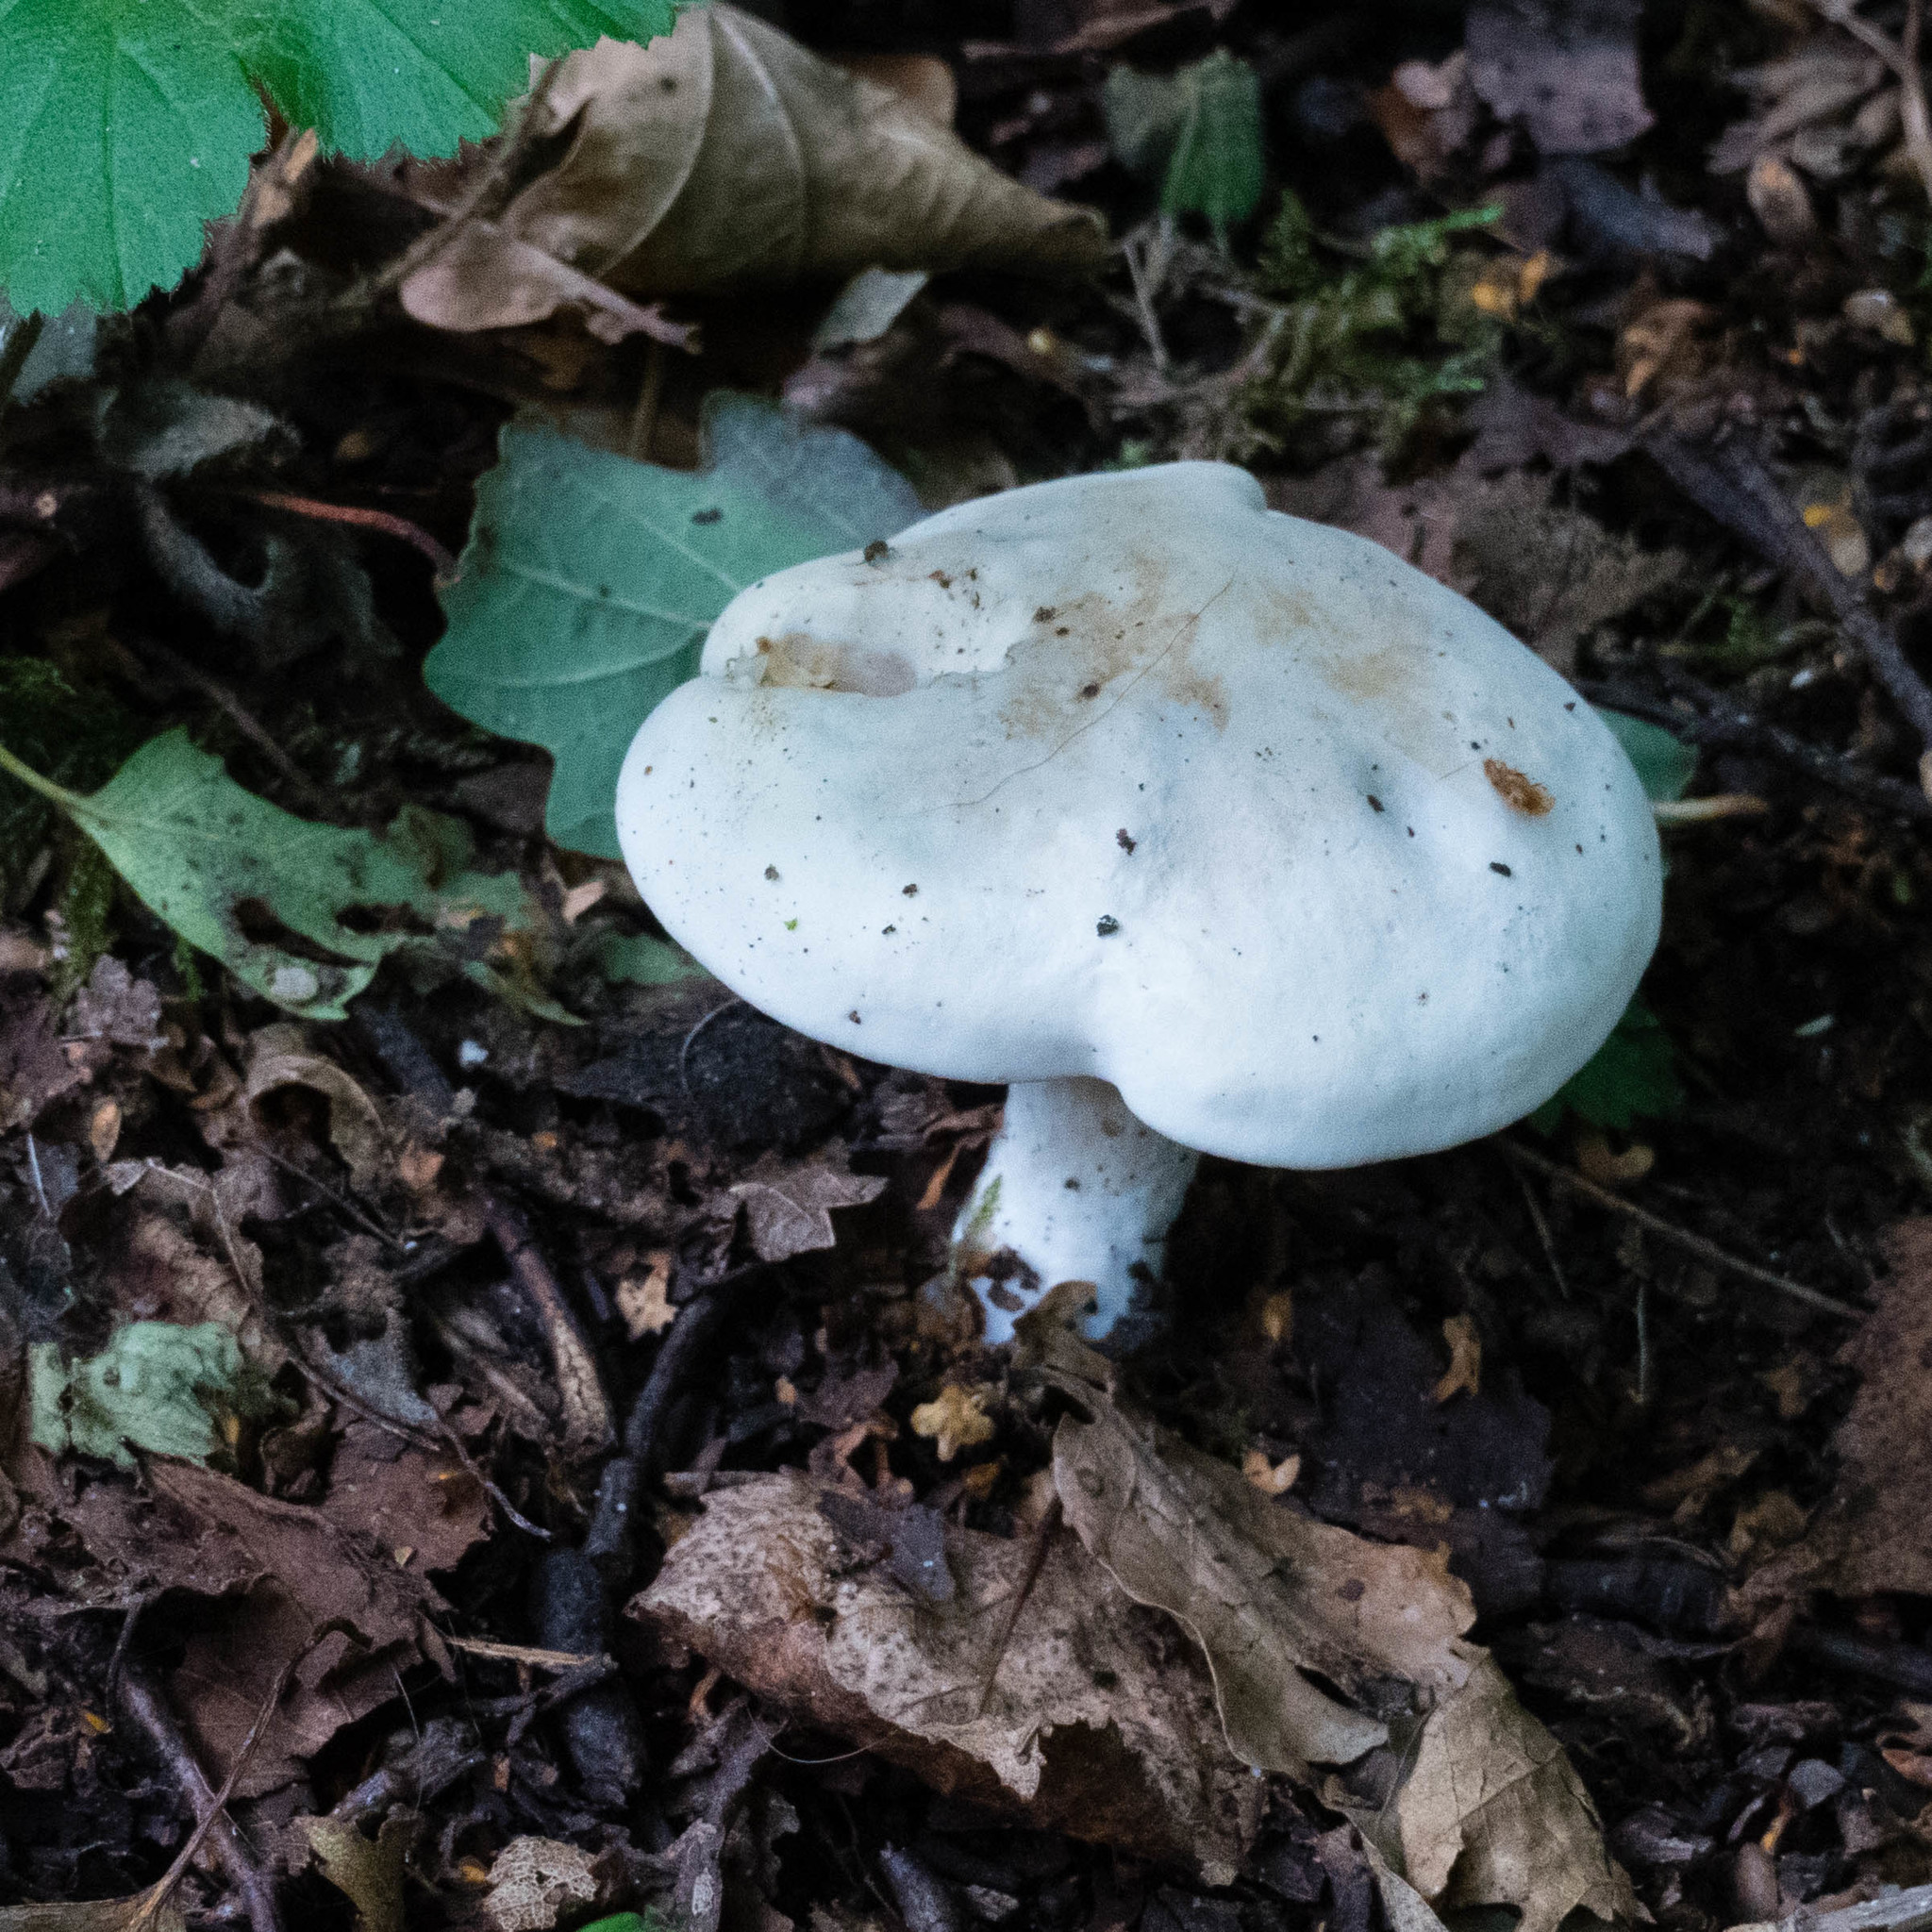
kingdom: Fungi
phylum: Basidiomycota
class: Agaricomycetes
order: Agaricales
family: Entolomataceae
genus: Clitopilus
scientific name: Clitopilus prunulus
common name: The miller
